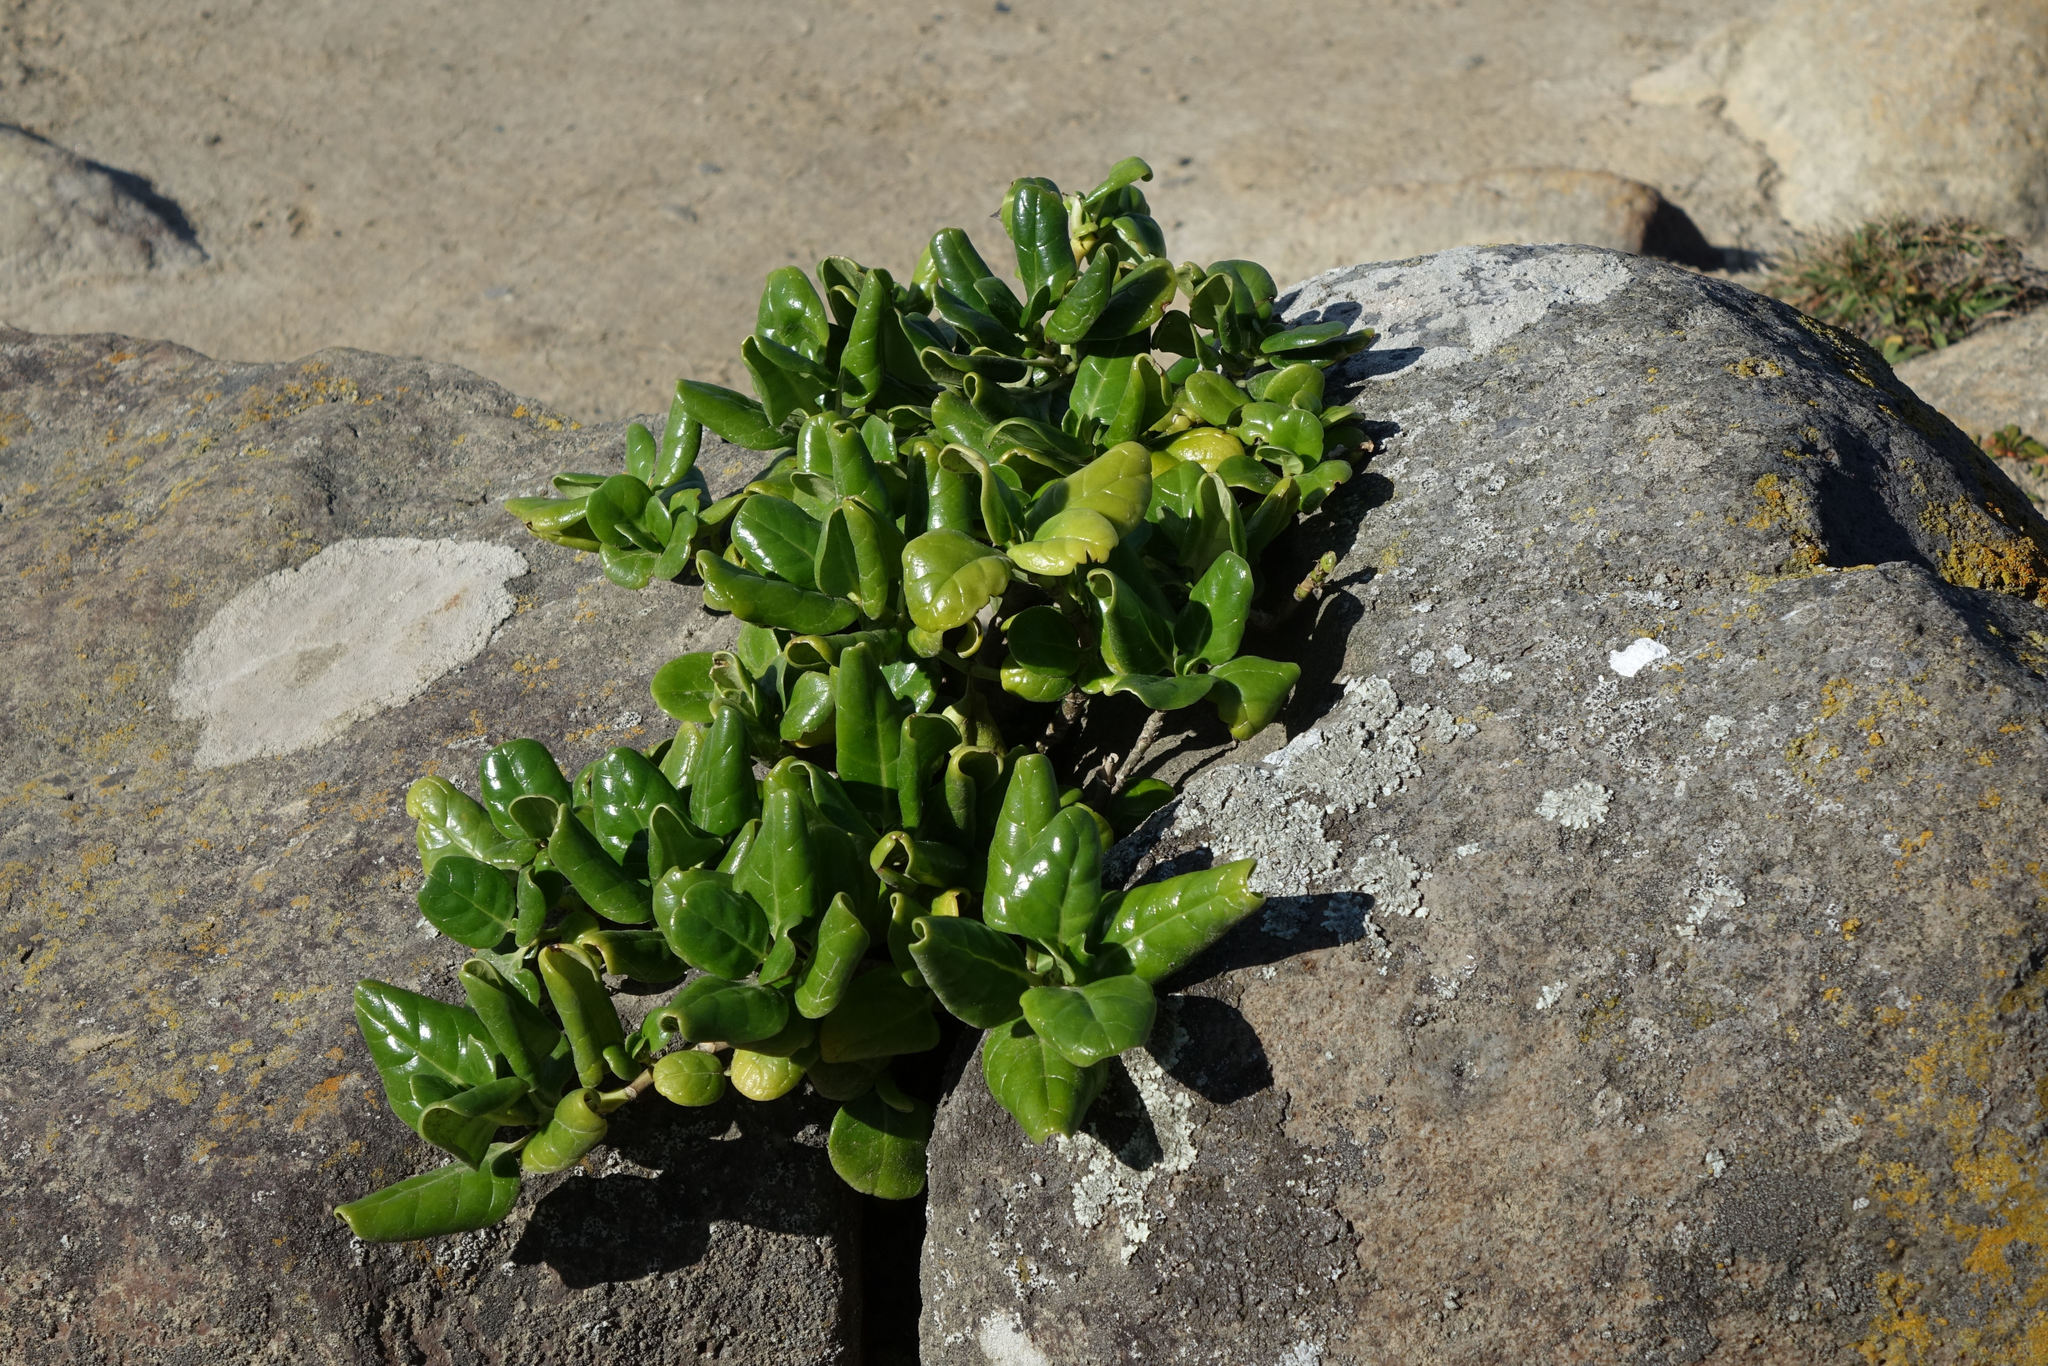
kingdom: Plantae
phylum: Tracheophyta
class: Magnoliopsida
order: Gentianales
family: Rubiaceae
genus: Coprosma
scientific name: Coprosma repens
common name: Tree bedstraw
